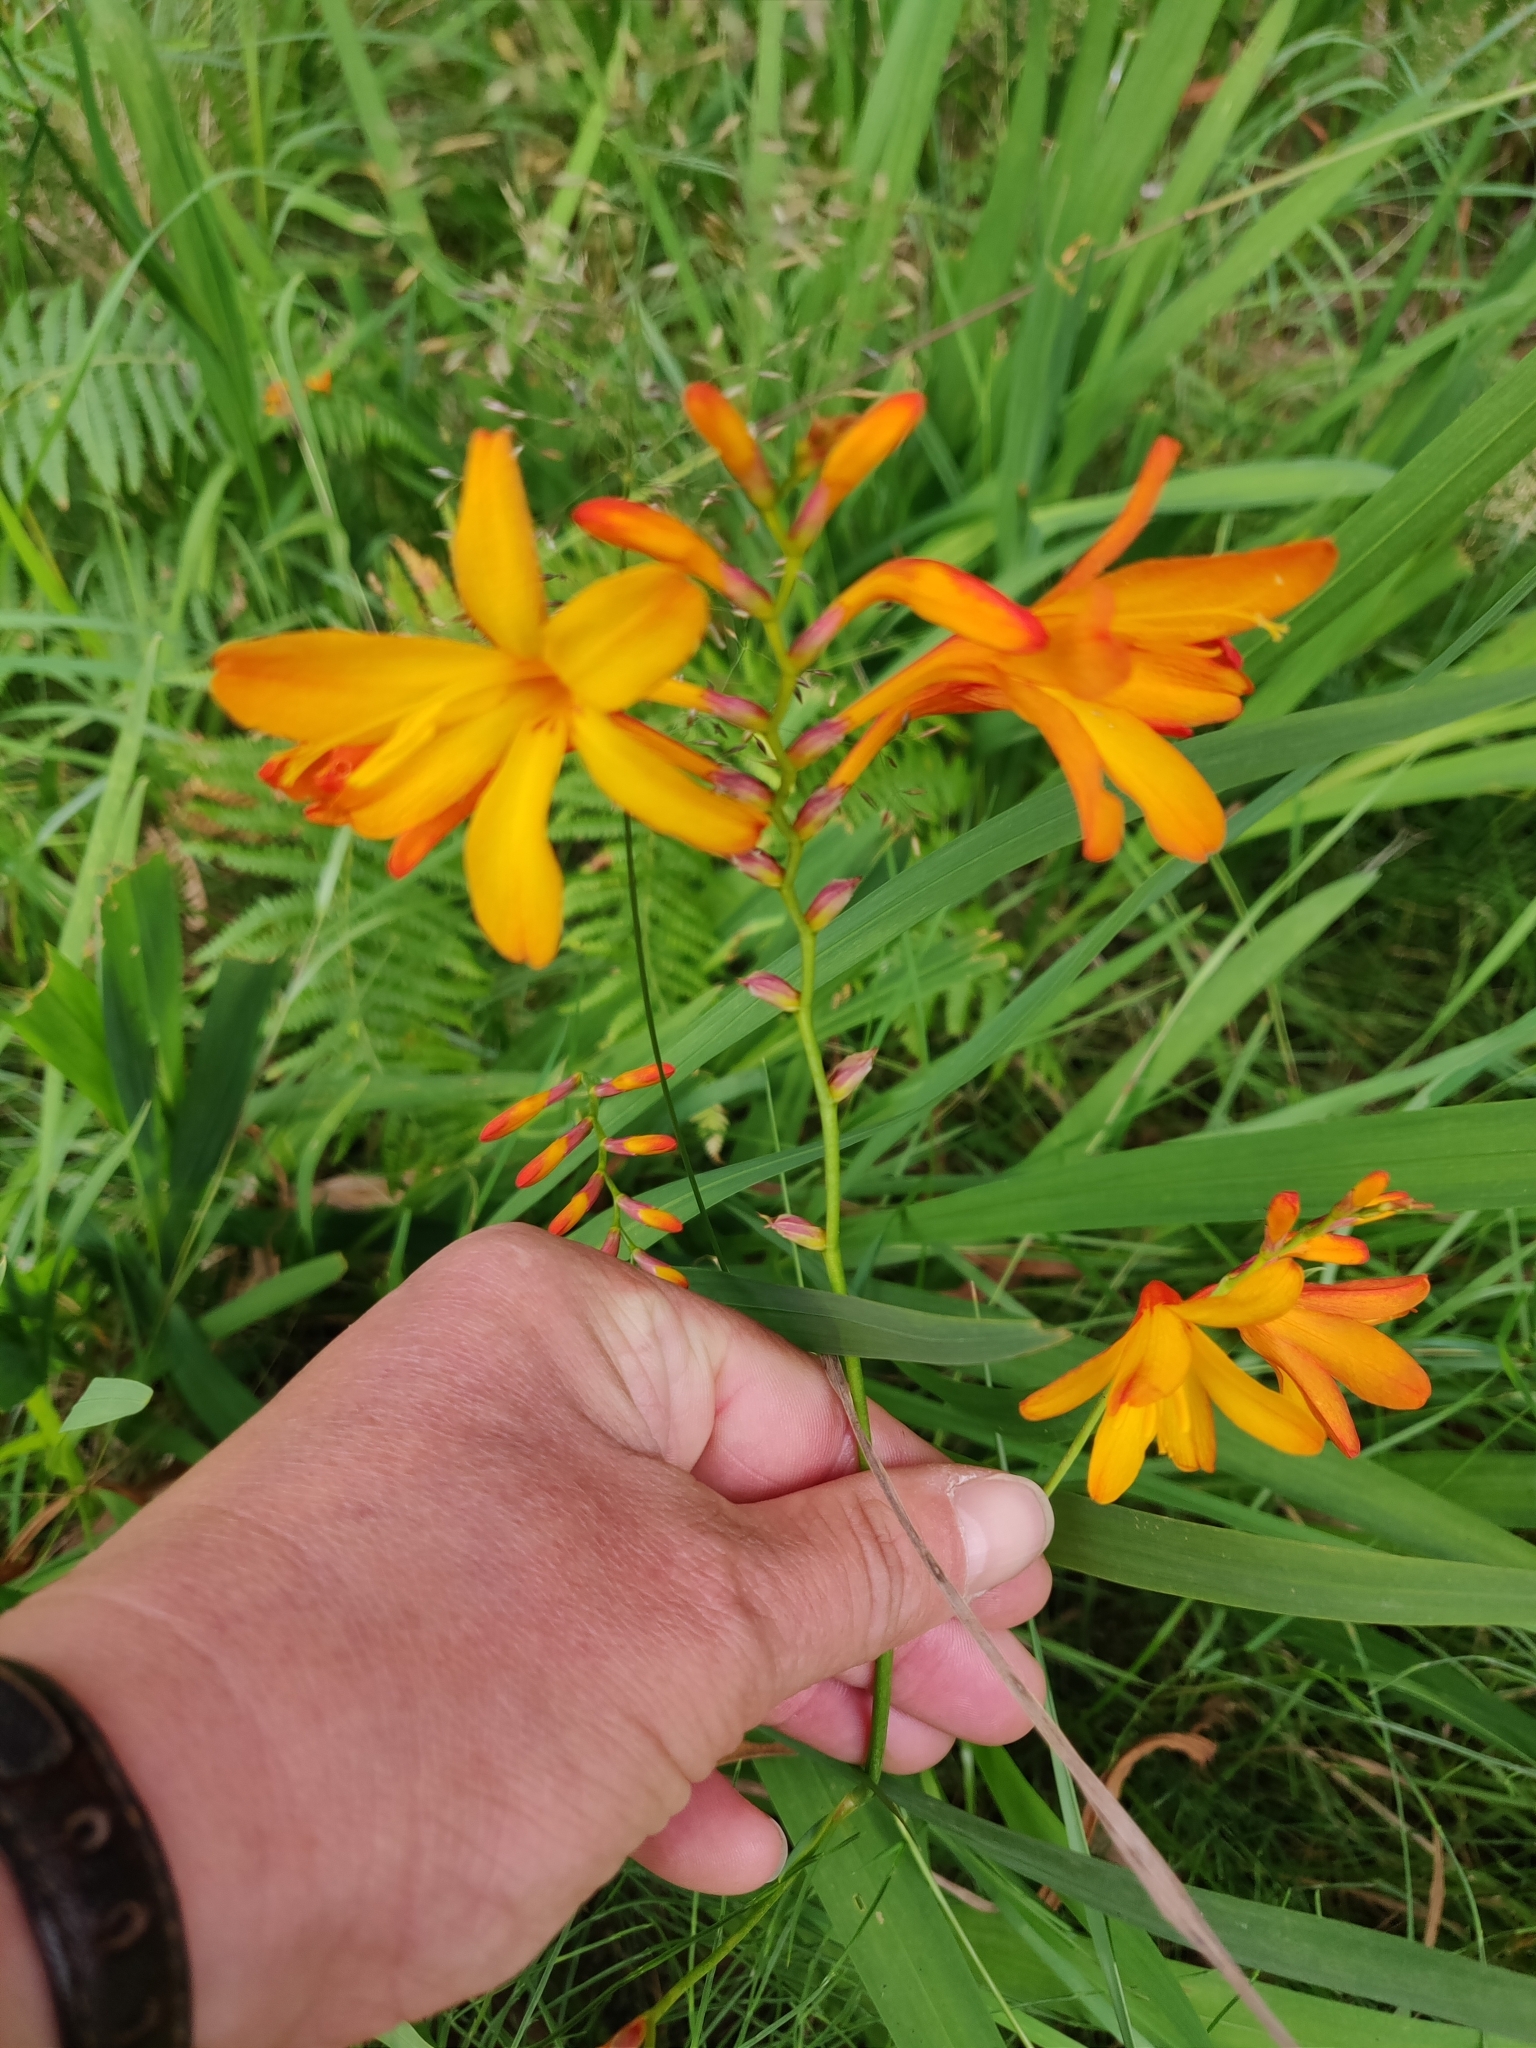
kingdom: Plantae
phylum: Tracheophyta
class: Liliopsida
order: Asparagales
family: Iridaceae
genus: Crocosmia
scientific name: Crocosmia crocosmiiflora
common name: Montbretia
